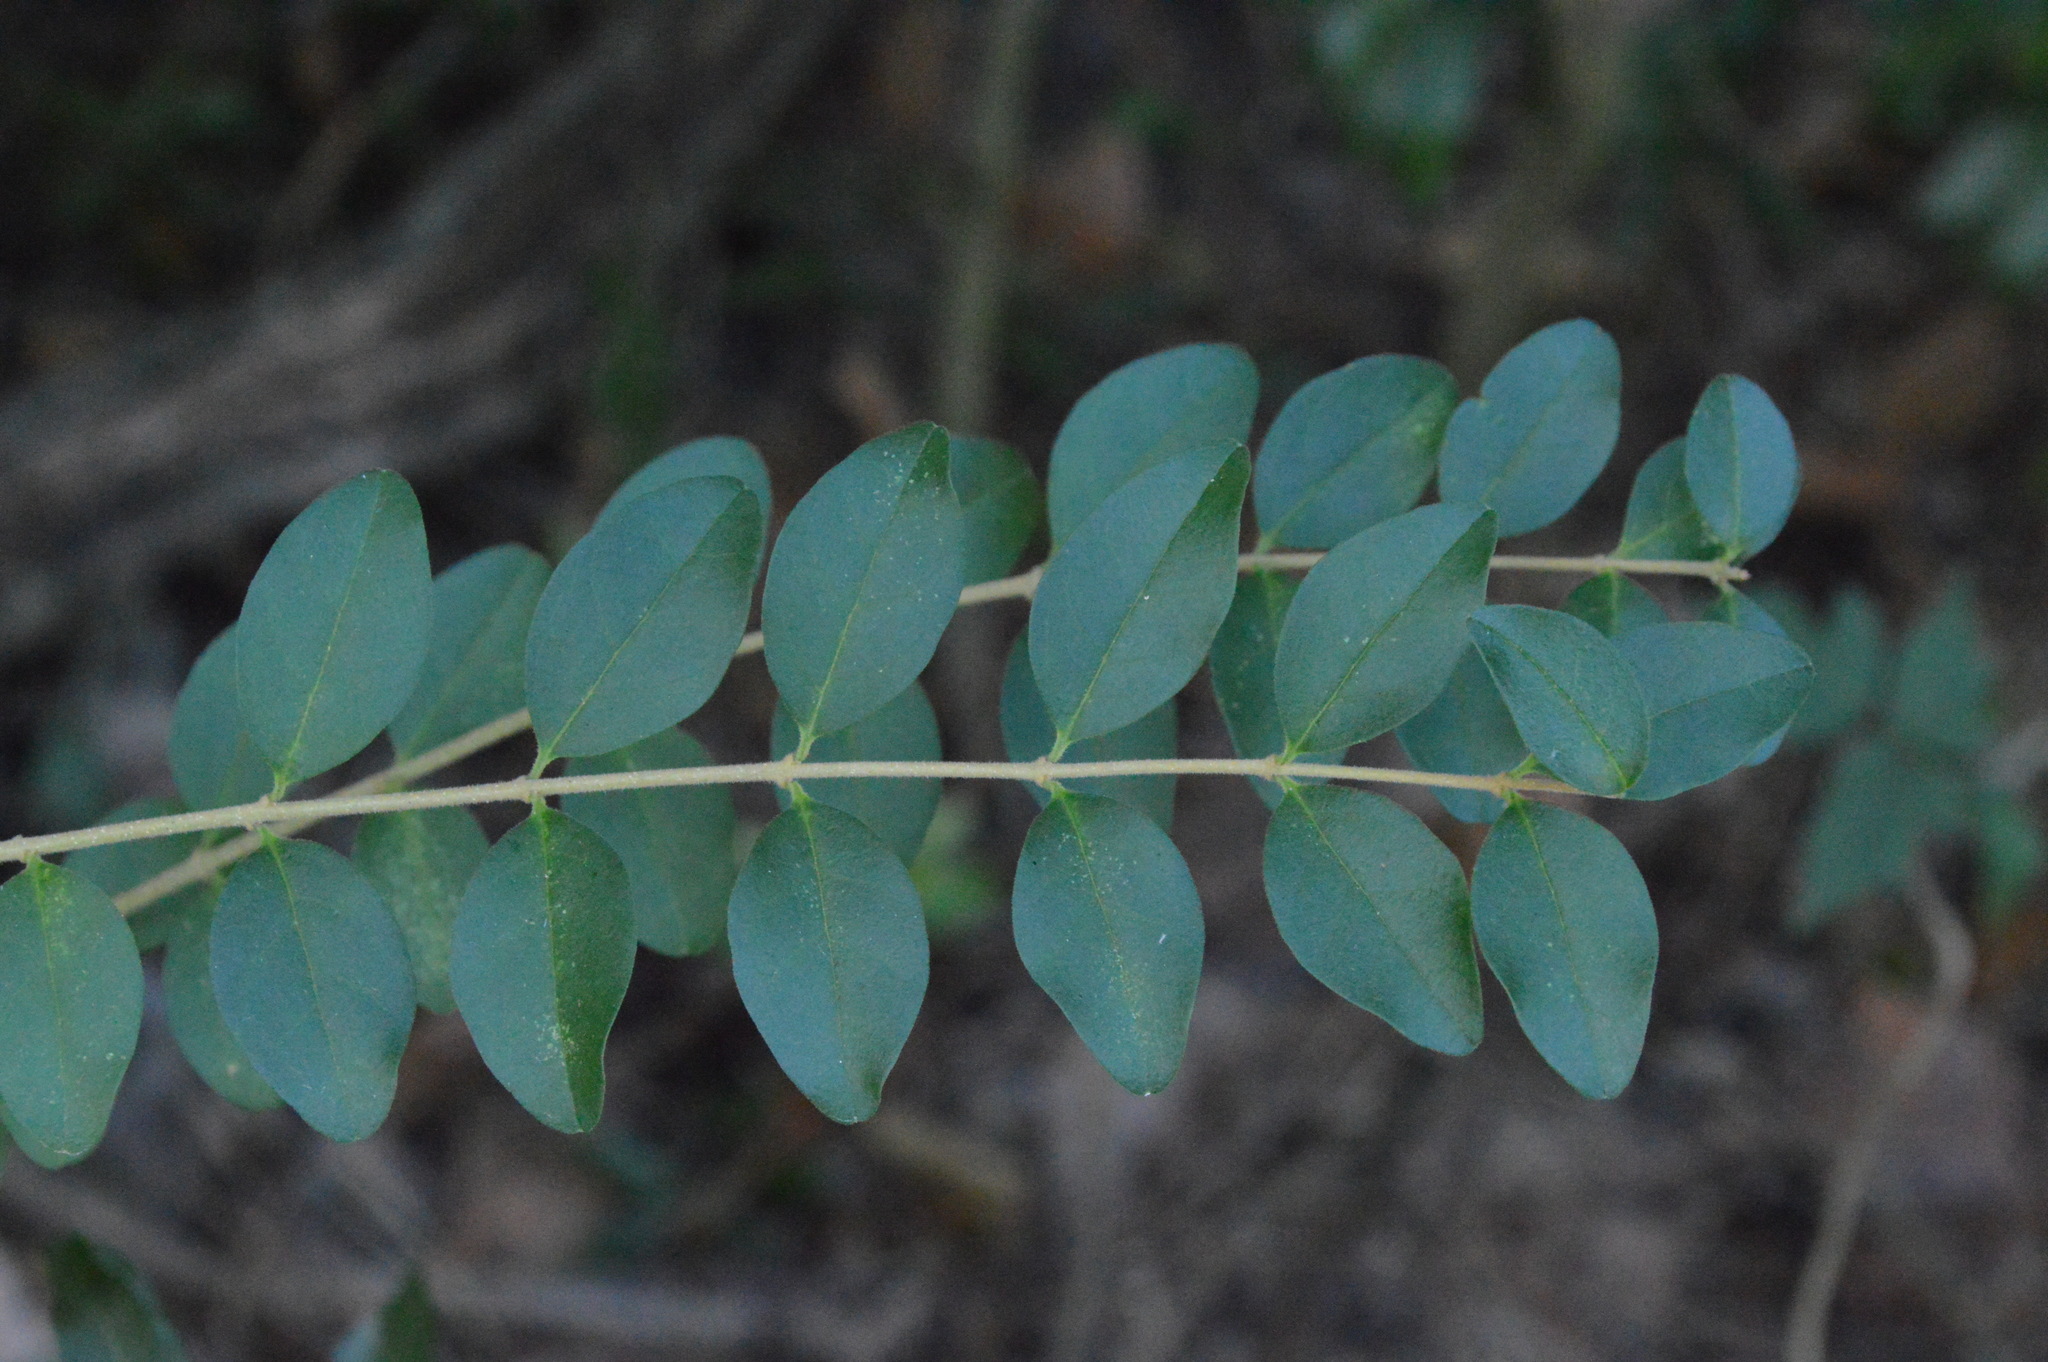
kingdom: Plantae
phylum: Tracheophyta
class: Magnoliopsida
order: Lamiales
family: Oleaceae
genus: Ligustrum
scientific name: Ligustrum sinense
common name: Chinese privet
